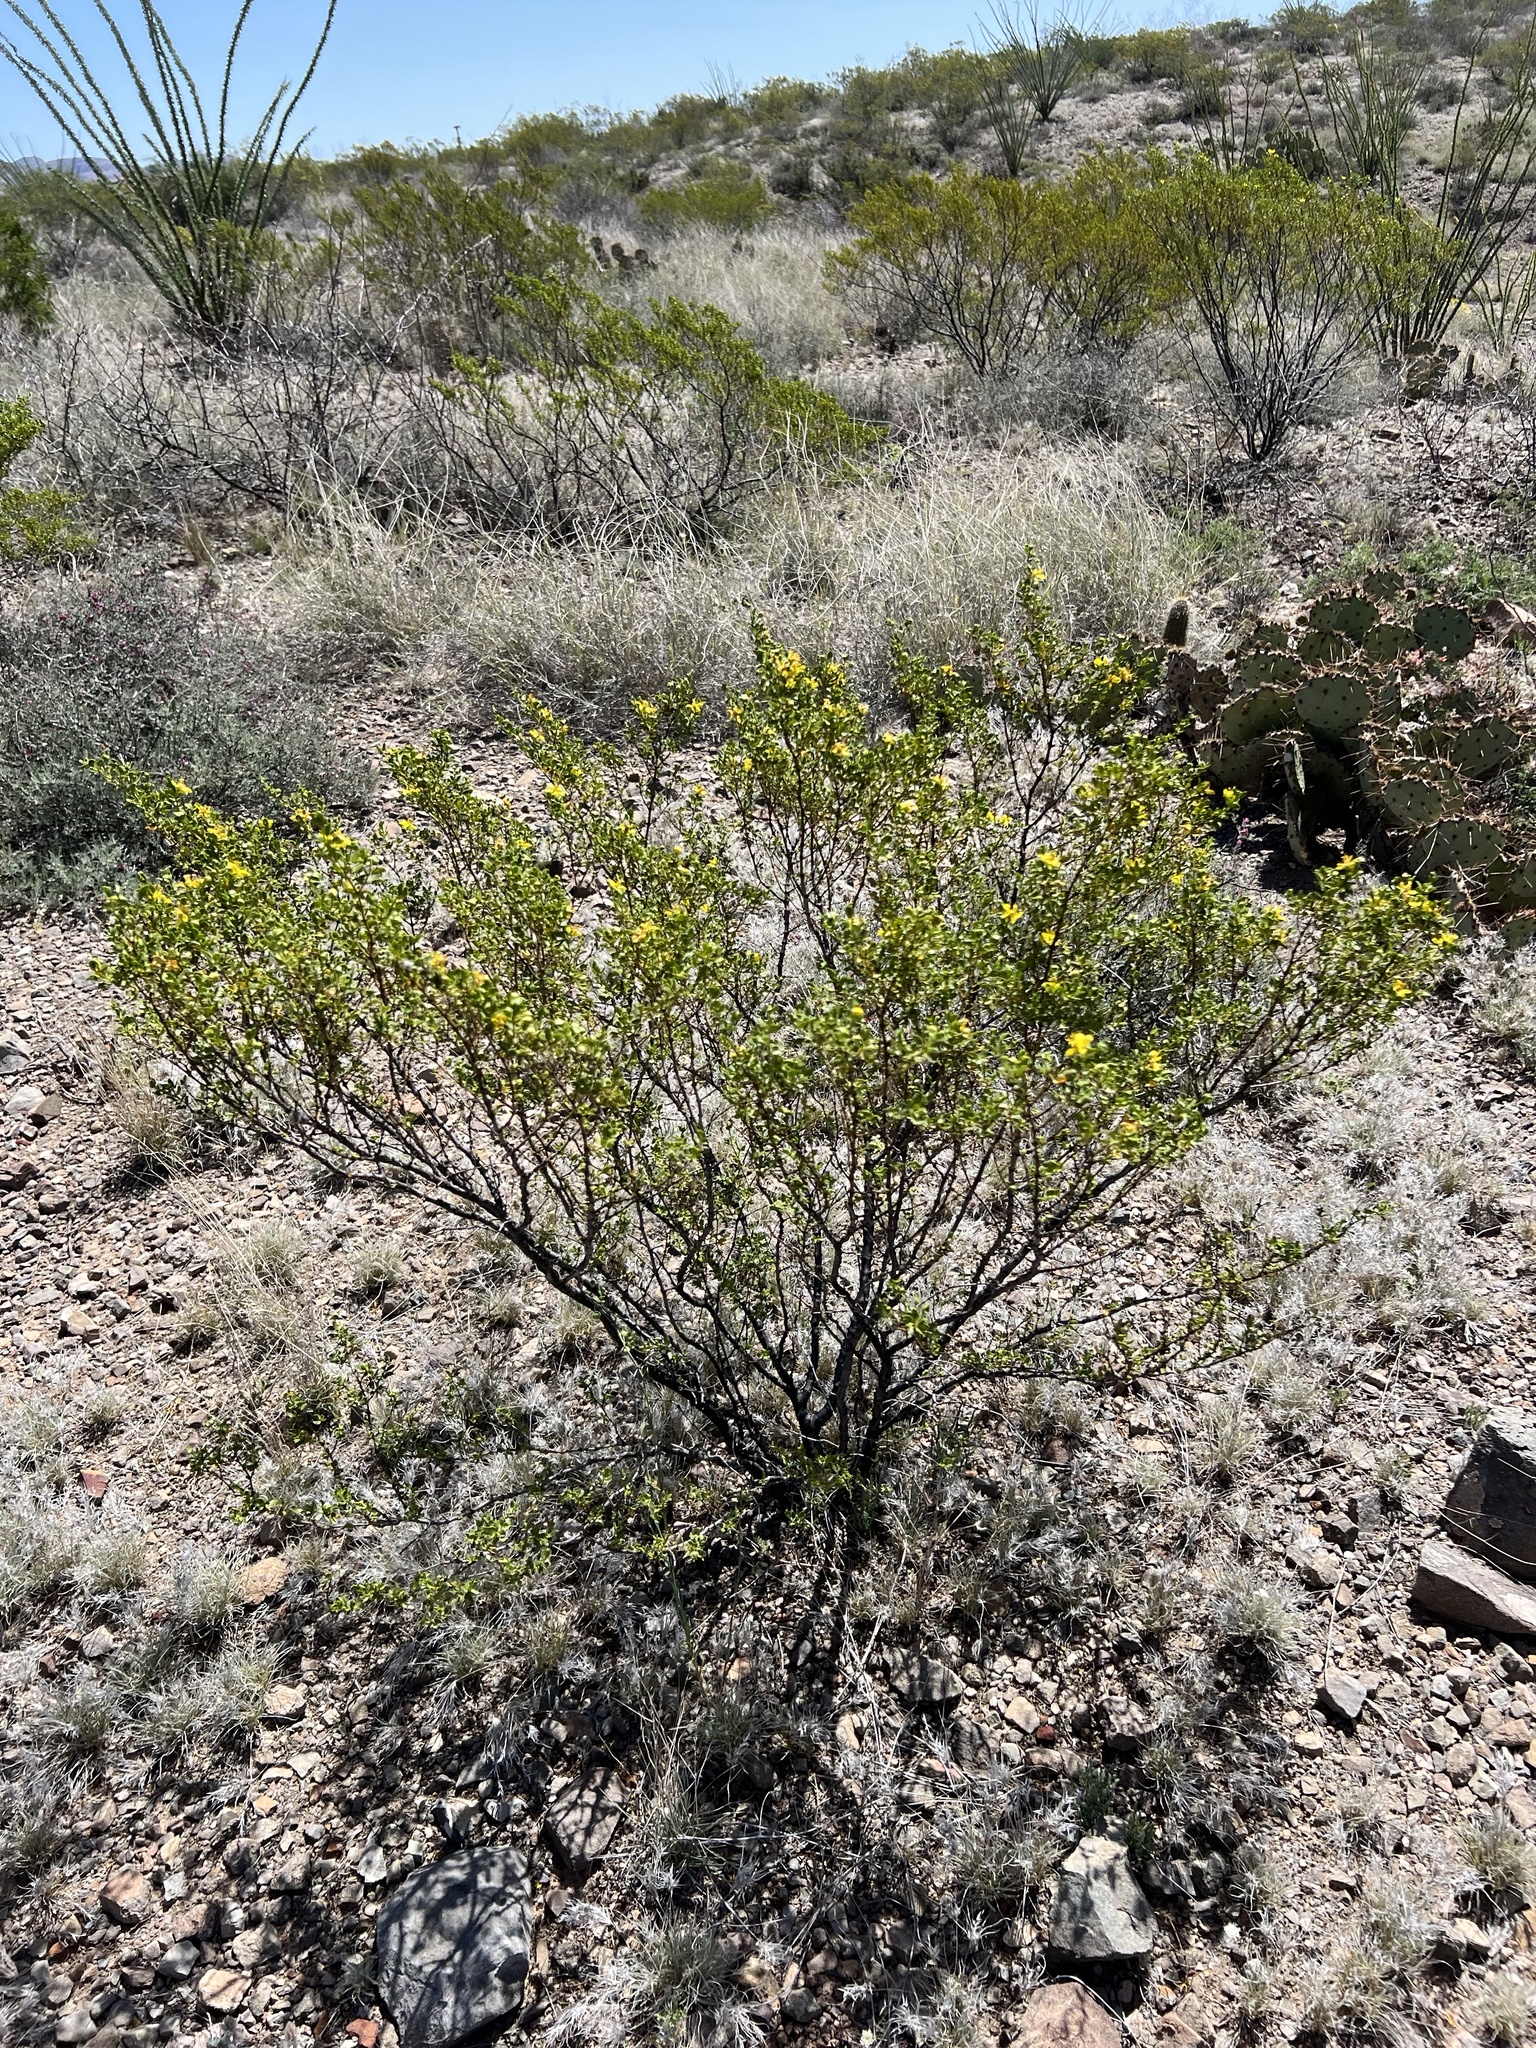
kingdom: Plantae
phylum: Tracheophyta
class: Magnoliopsida
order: Zygophyllales
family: Zygophyllaceae
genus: Larrea
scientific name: Larrea tridentata
